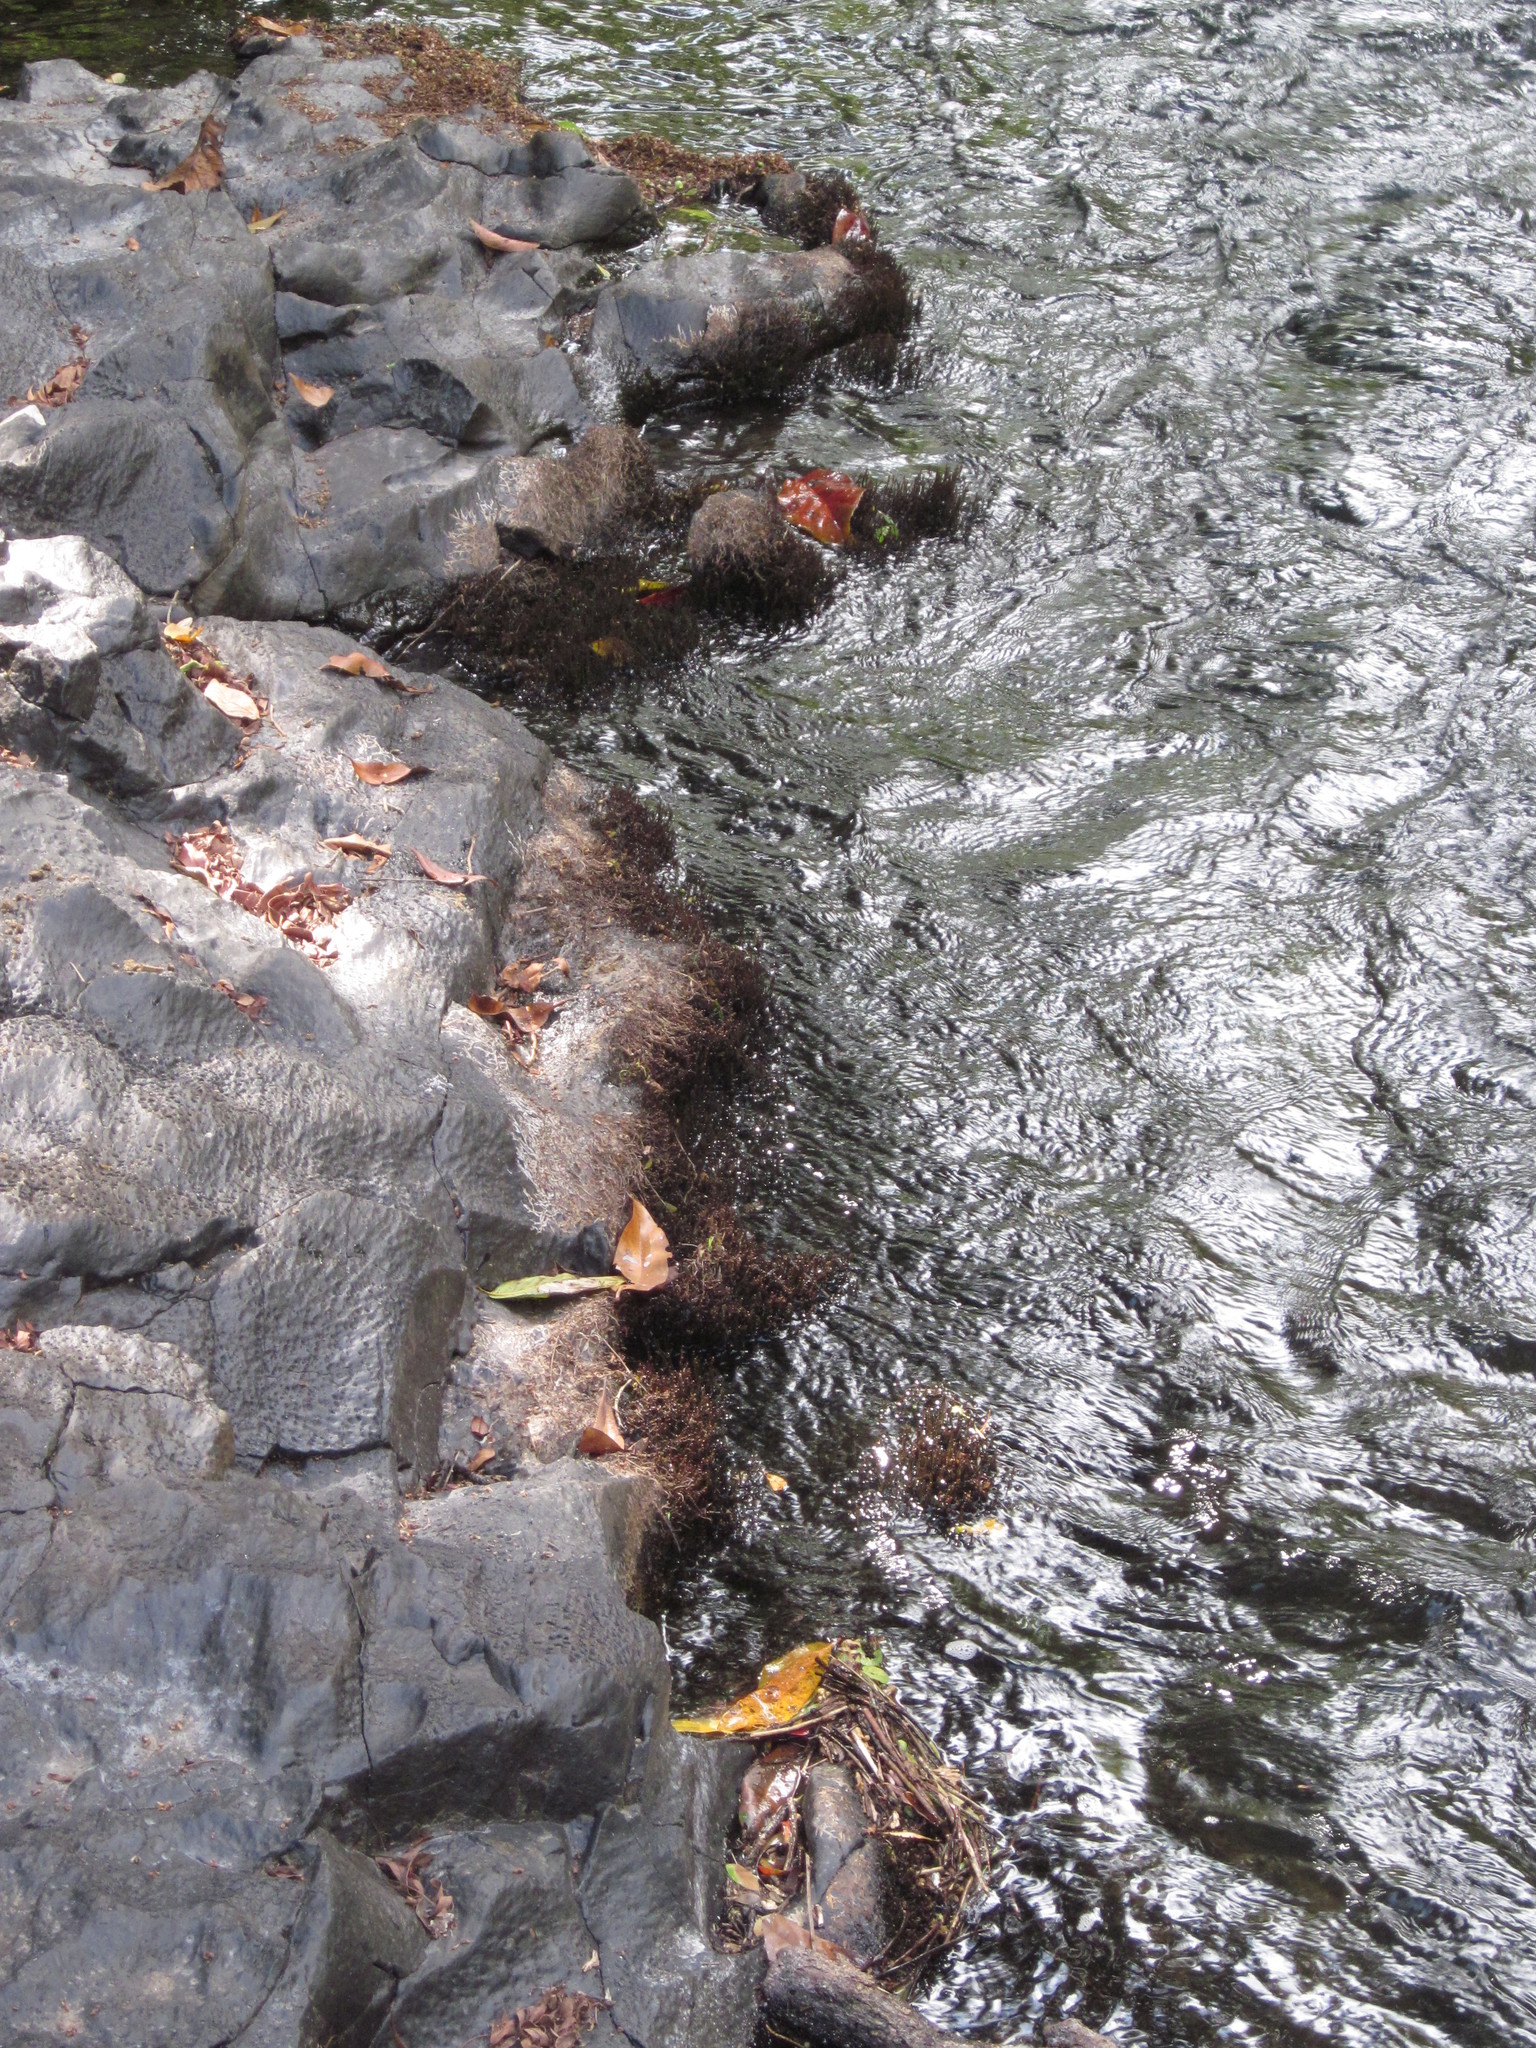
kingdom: Plantae
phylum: Tracheophyta
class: Magnoliopsida
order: Malpighiales
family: Podostemaceae
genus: Cladopus
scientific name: Cladopus queenslandicus
